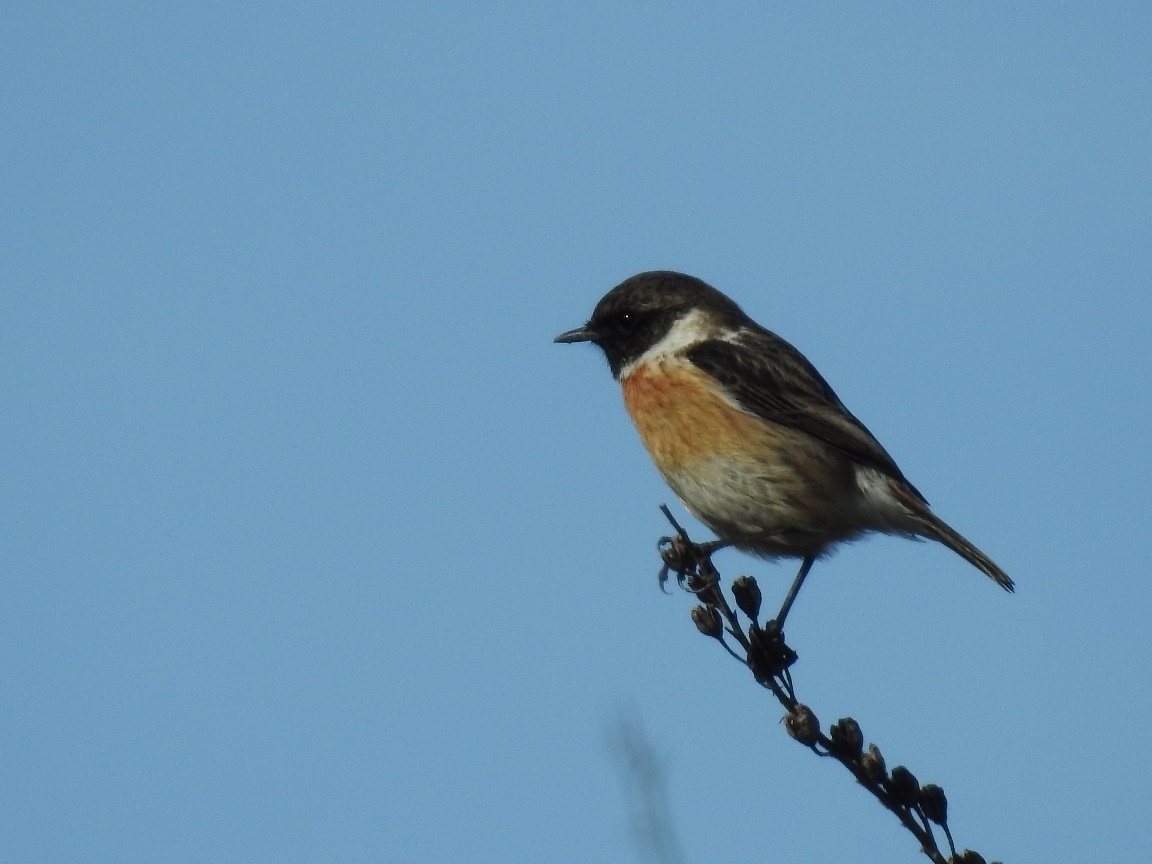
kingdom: Animalia
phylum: Chordata
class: Aves
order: Passeriformes
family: Muscicapidae
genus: Saxicola
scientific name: Saxicola rubicola
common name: European stonechat
